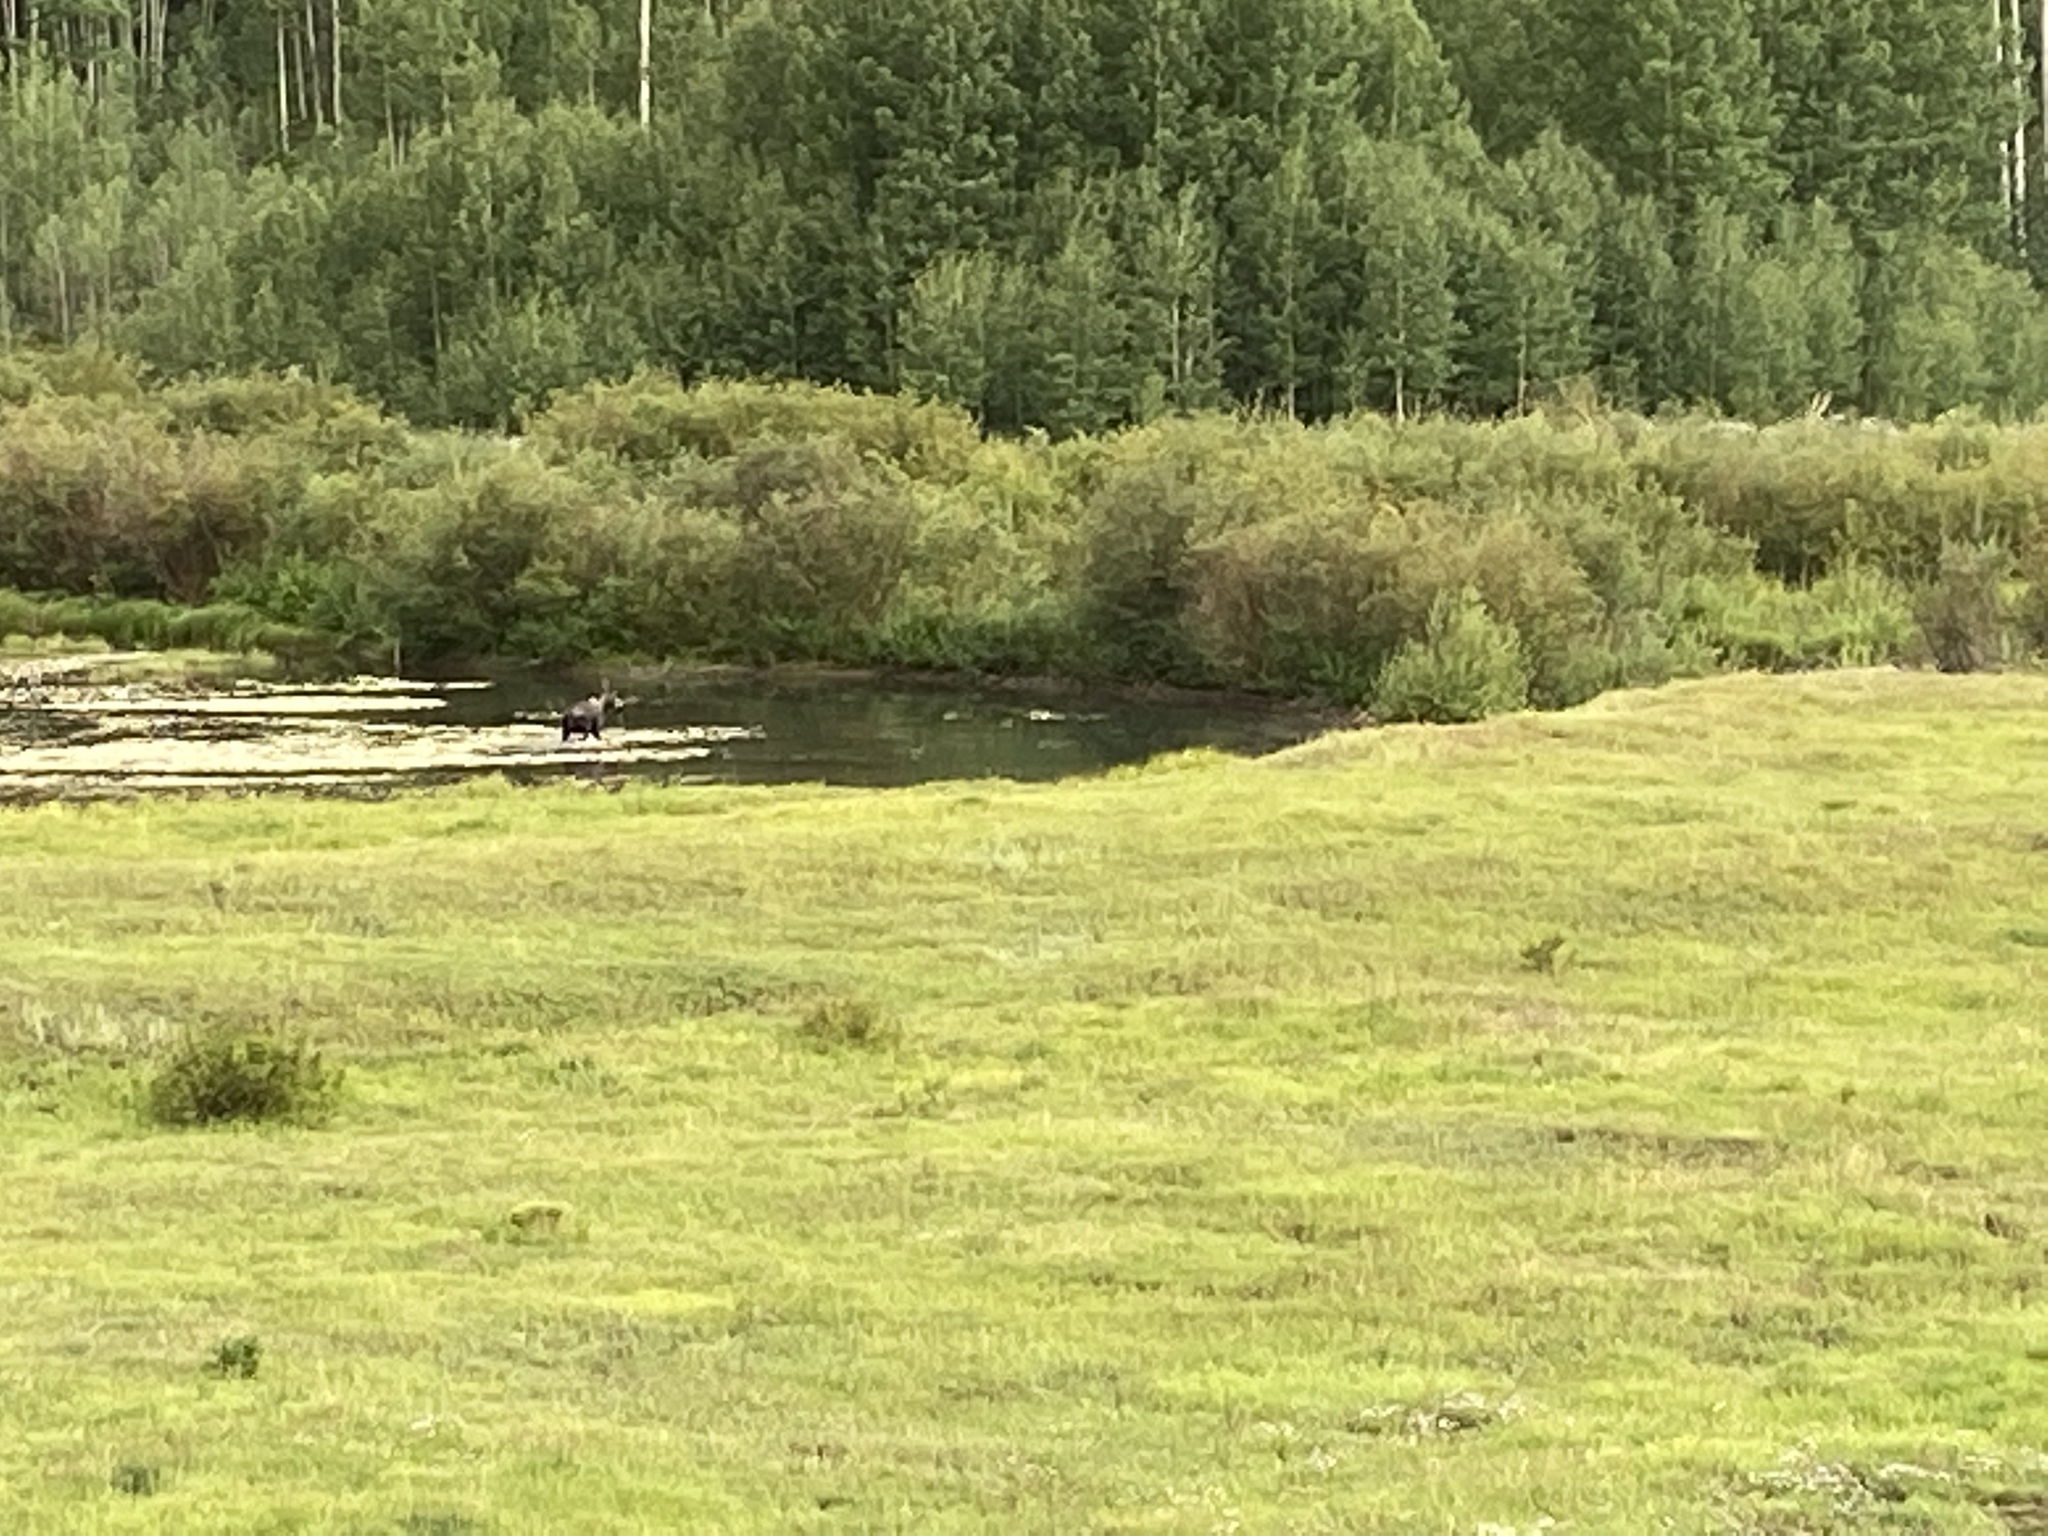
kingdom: Animalia
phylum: Chordata
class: Mammalia
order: Artiodactyla
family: Cervidae
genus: Alces
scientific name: Alces alces
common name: Moose
